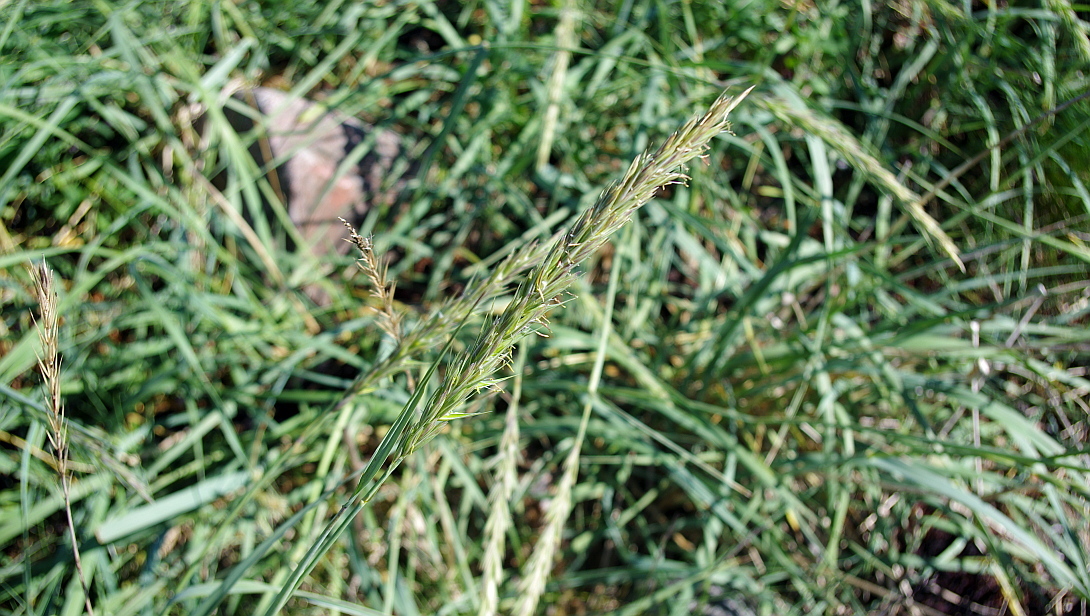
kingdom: Plantae
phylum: Tracheophyta
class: Liliopsida
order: Poales
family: Poaceae
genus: Leymus
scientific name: Leymus arenarius
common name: Lyme-grass
